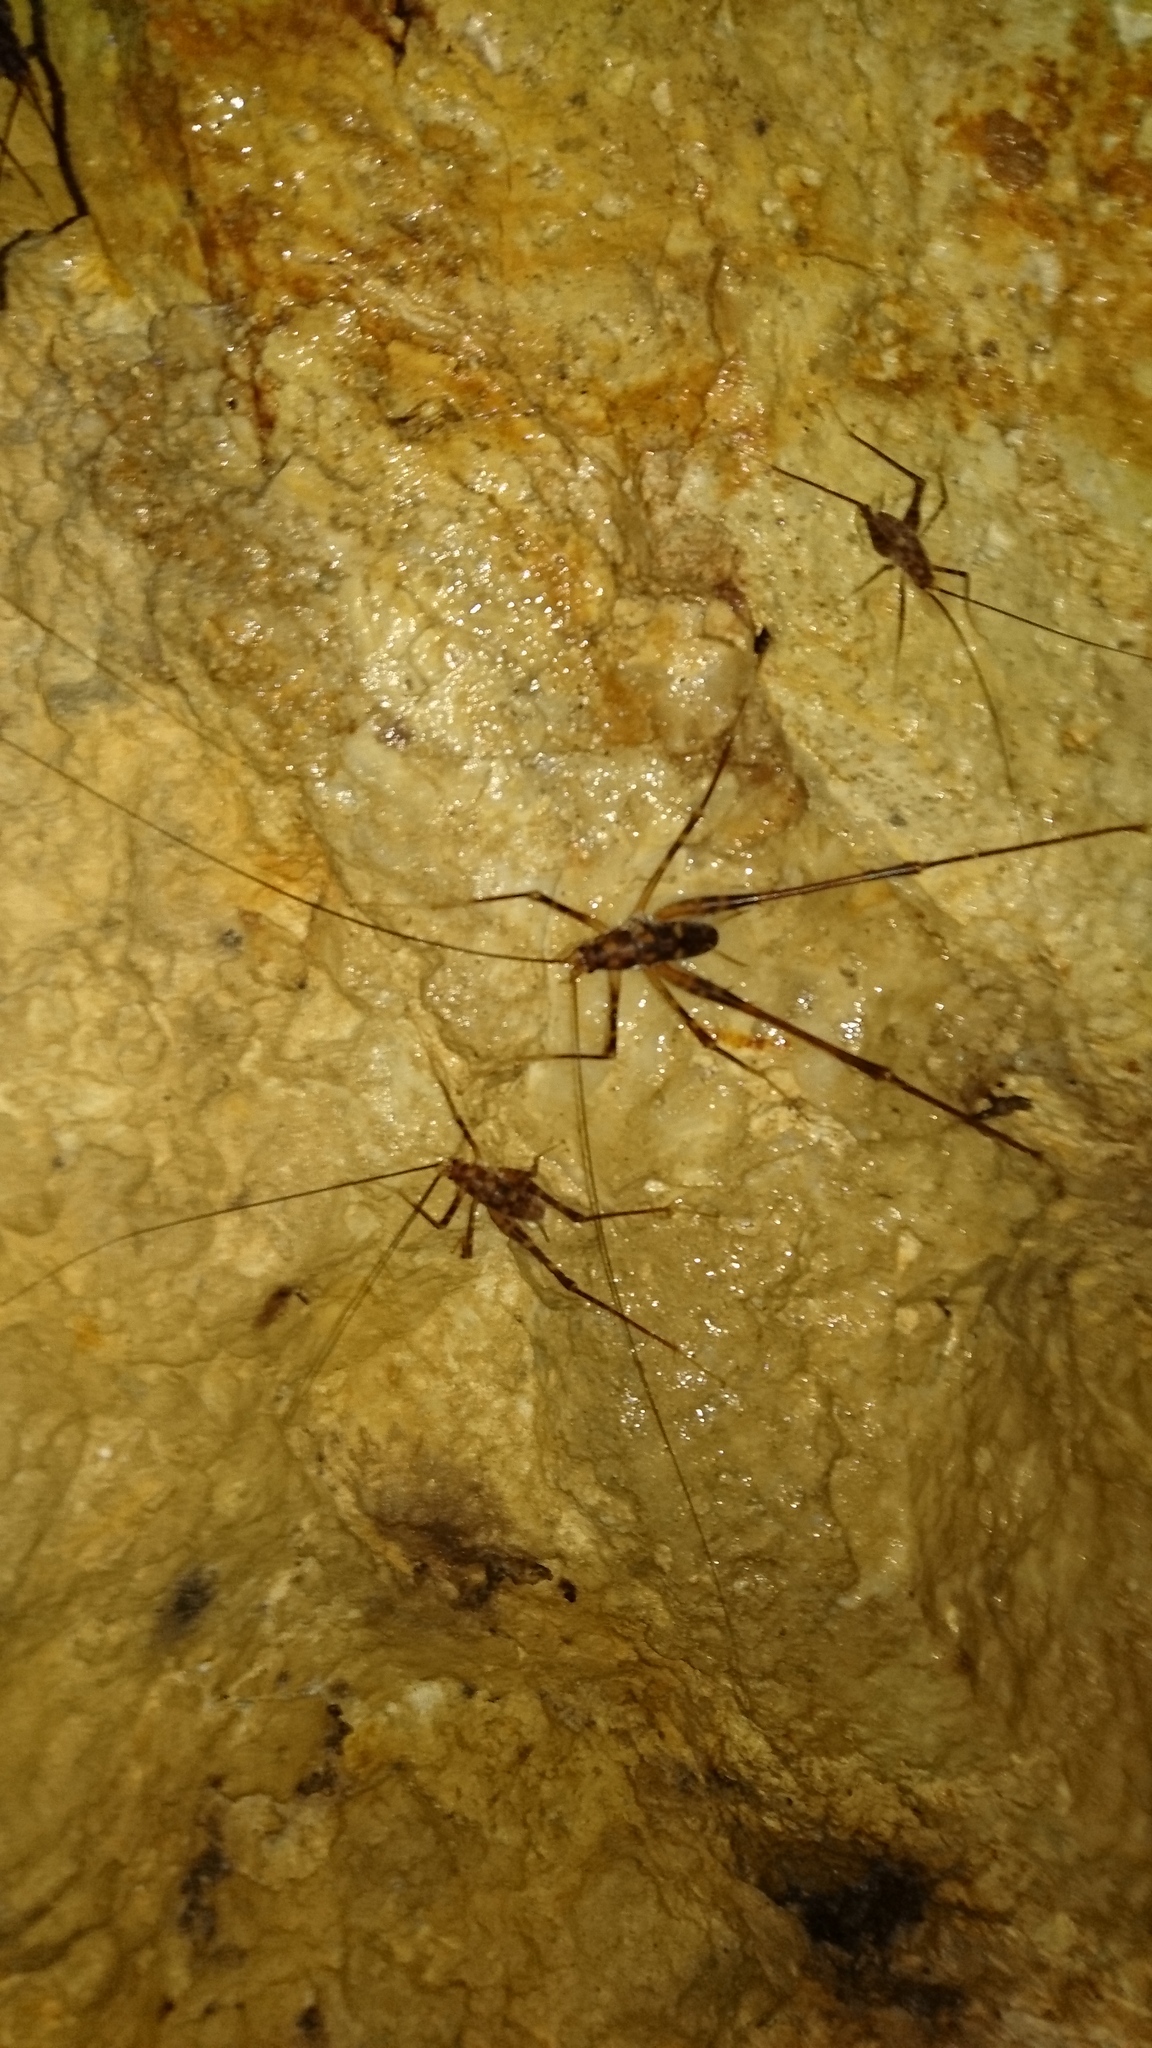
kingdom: Animalia
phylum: Arthropoda
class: Insecta
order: Orthoptera
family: Rhaphidophoridae
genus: Pachyrhamma
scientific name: Pachyrhamma uncata
